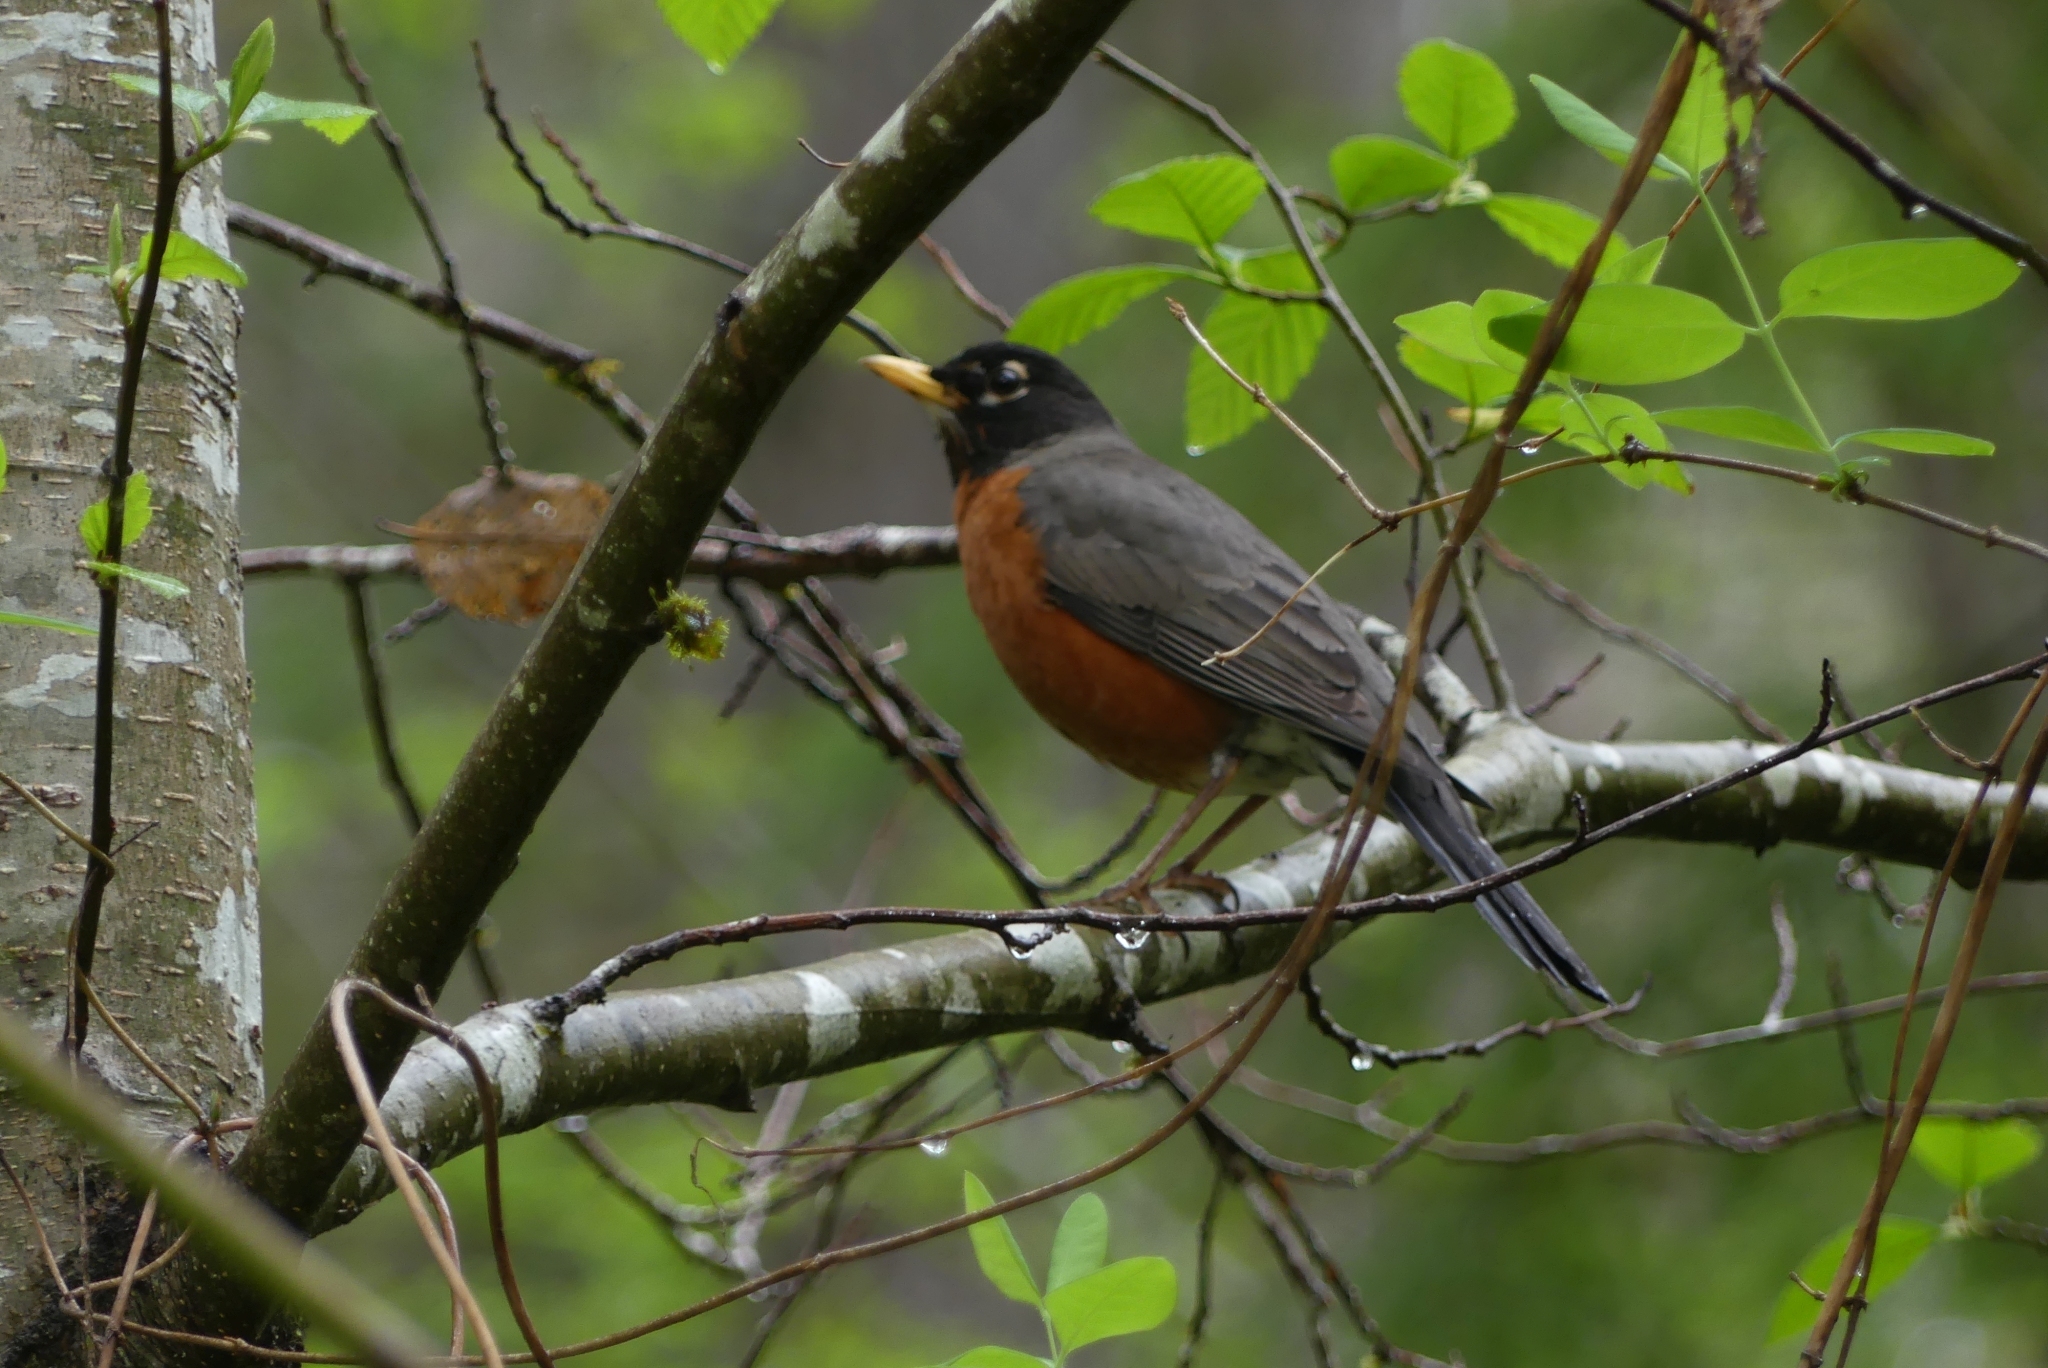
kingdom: Animalia
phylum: Chordata
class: Aves
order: Passeriformes
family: Turdidae
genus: Turdus
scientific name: Turdus migratorius
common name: American robin
